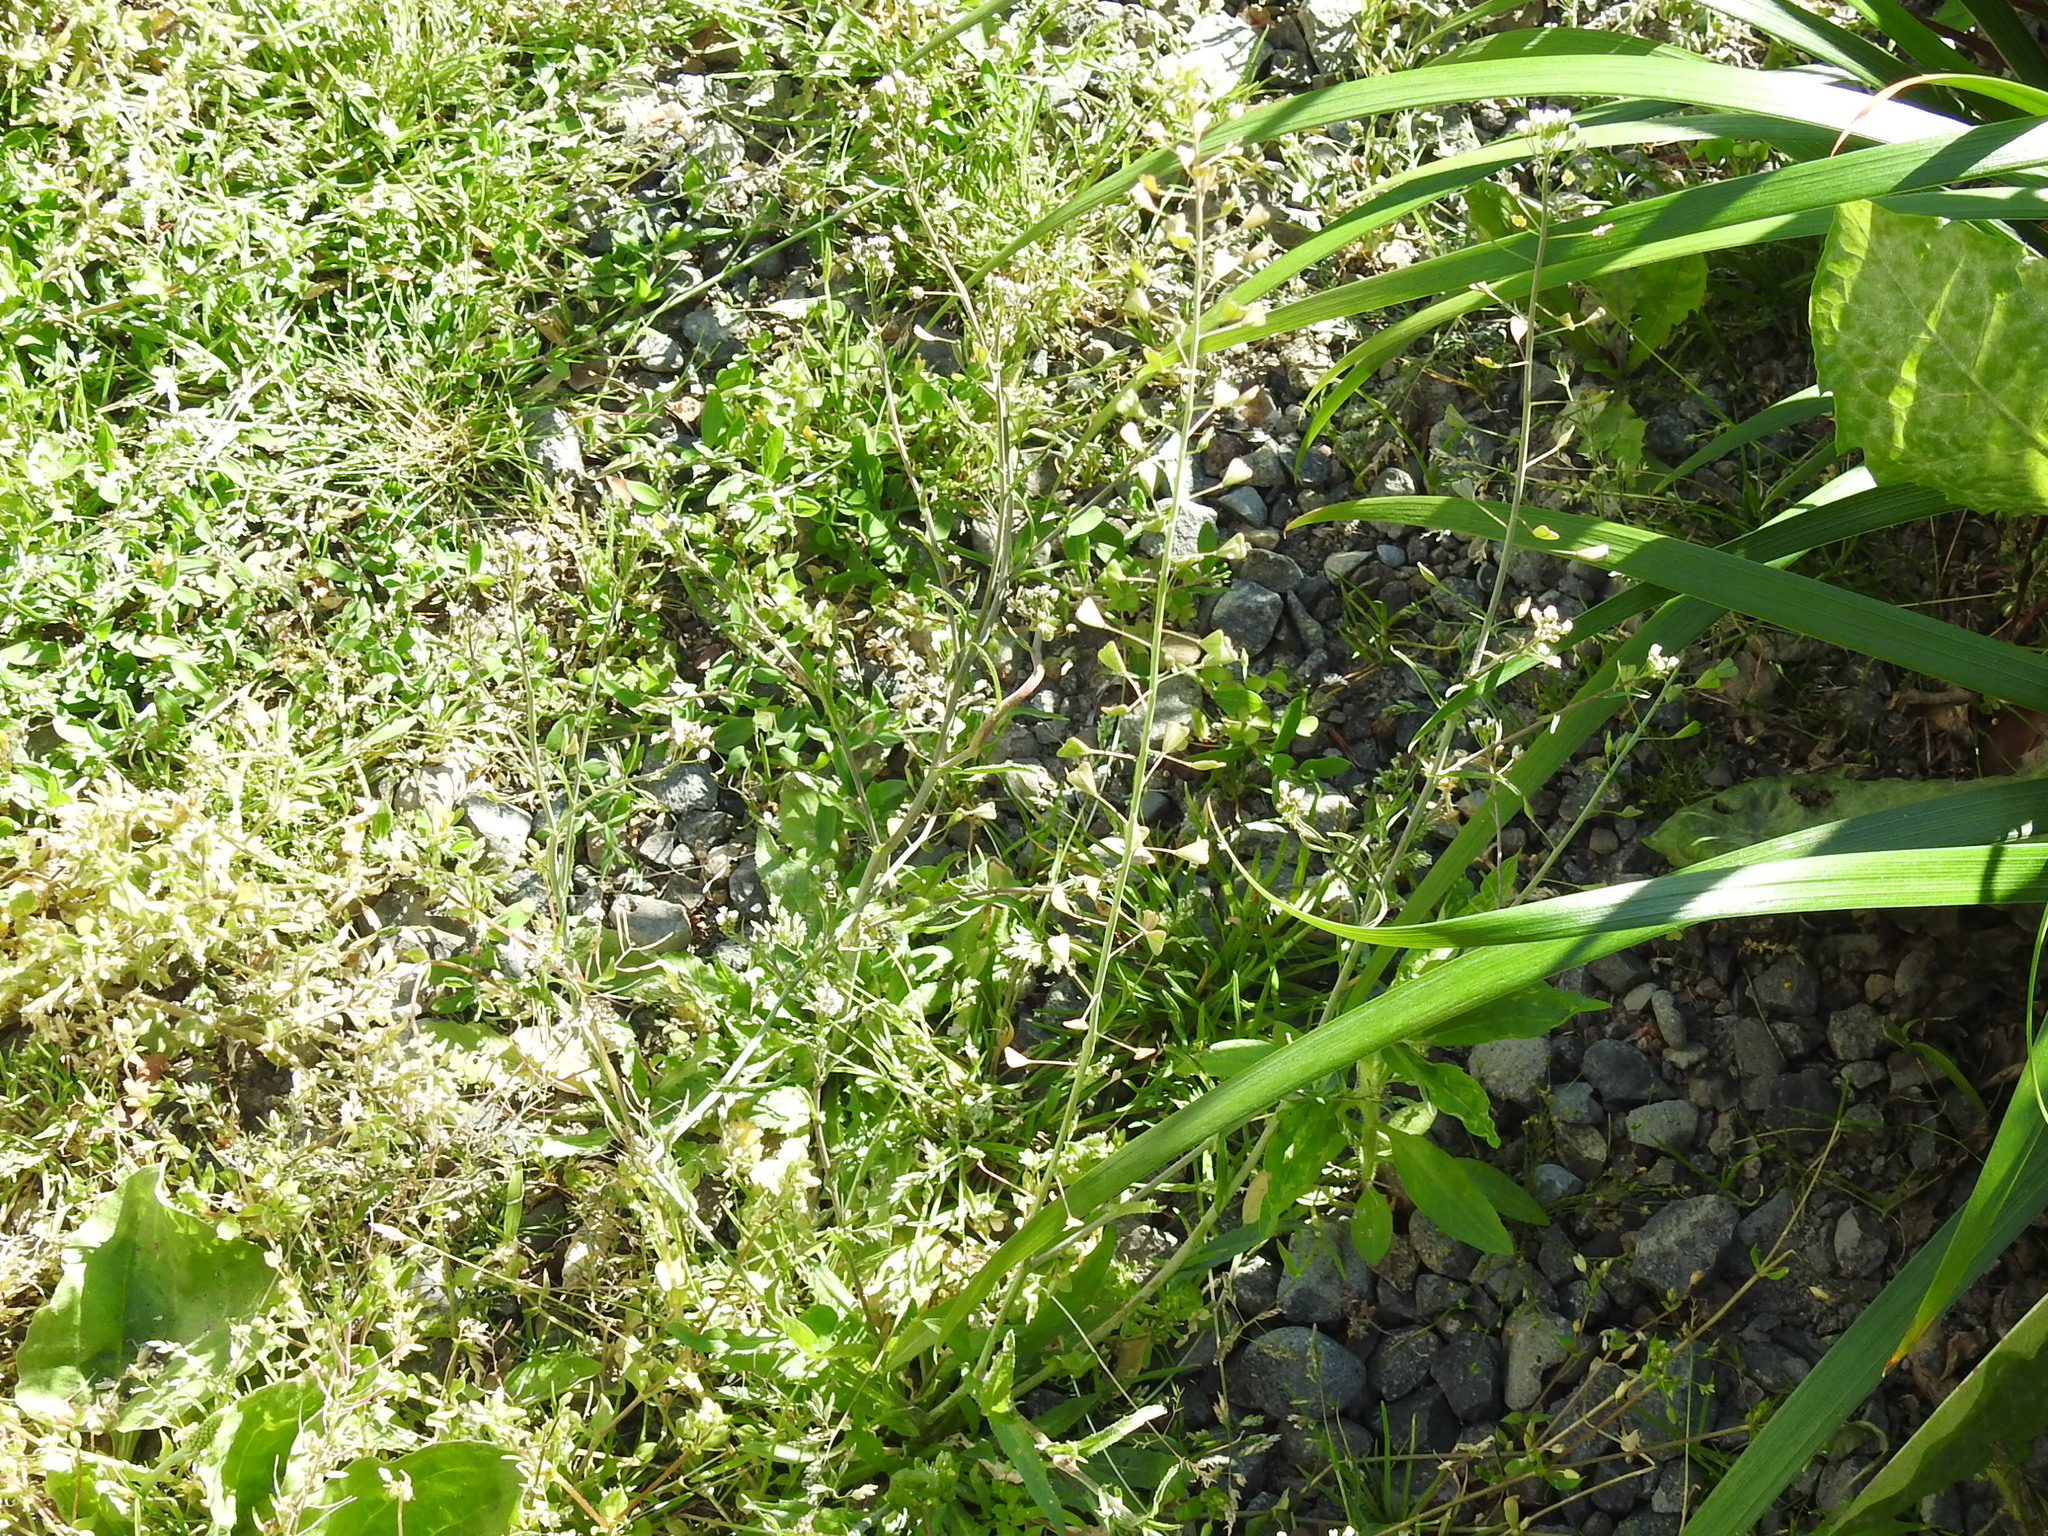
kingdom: Plantae
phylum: Tracheophyta
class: Magnoliopsida
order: Brassicales
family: Brassicaceae
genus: Capsella
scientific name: Capsella bursa-pastoris
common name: Shepherd's purse
